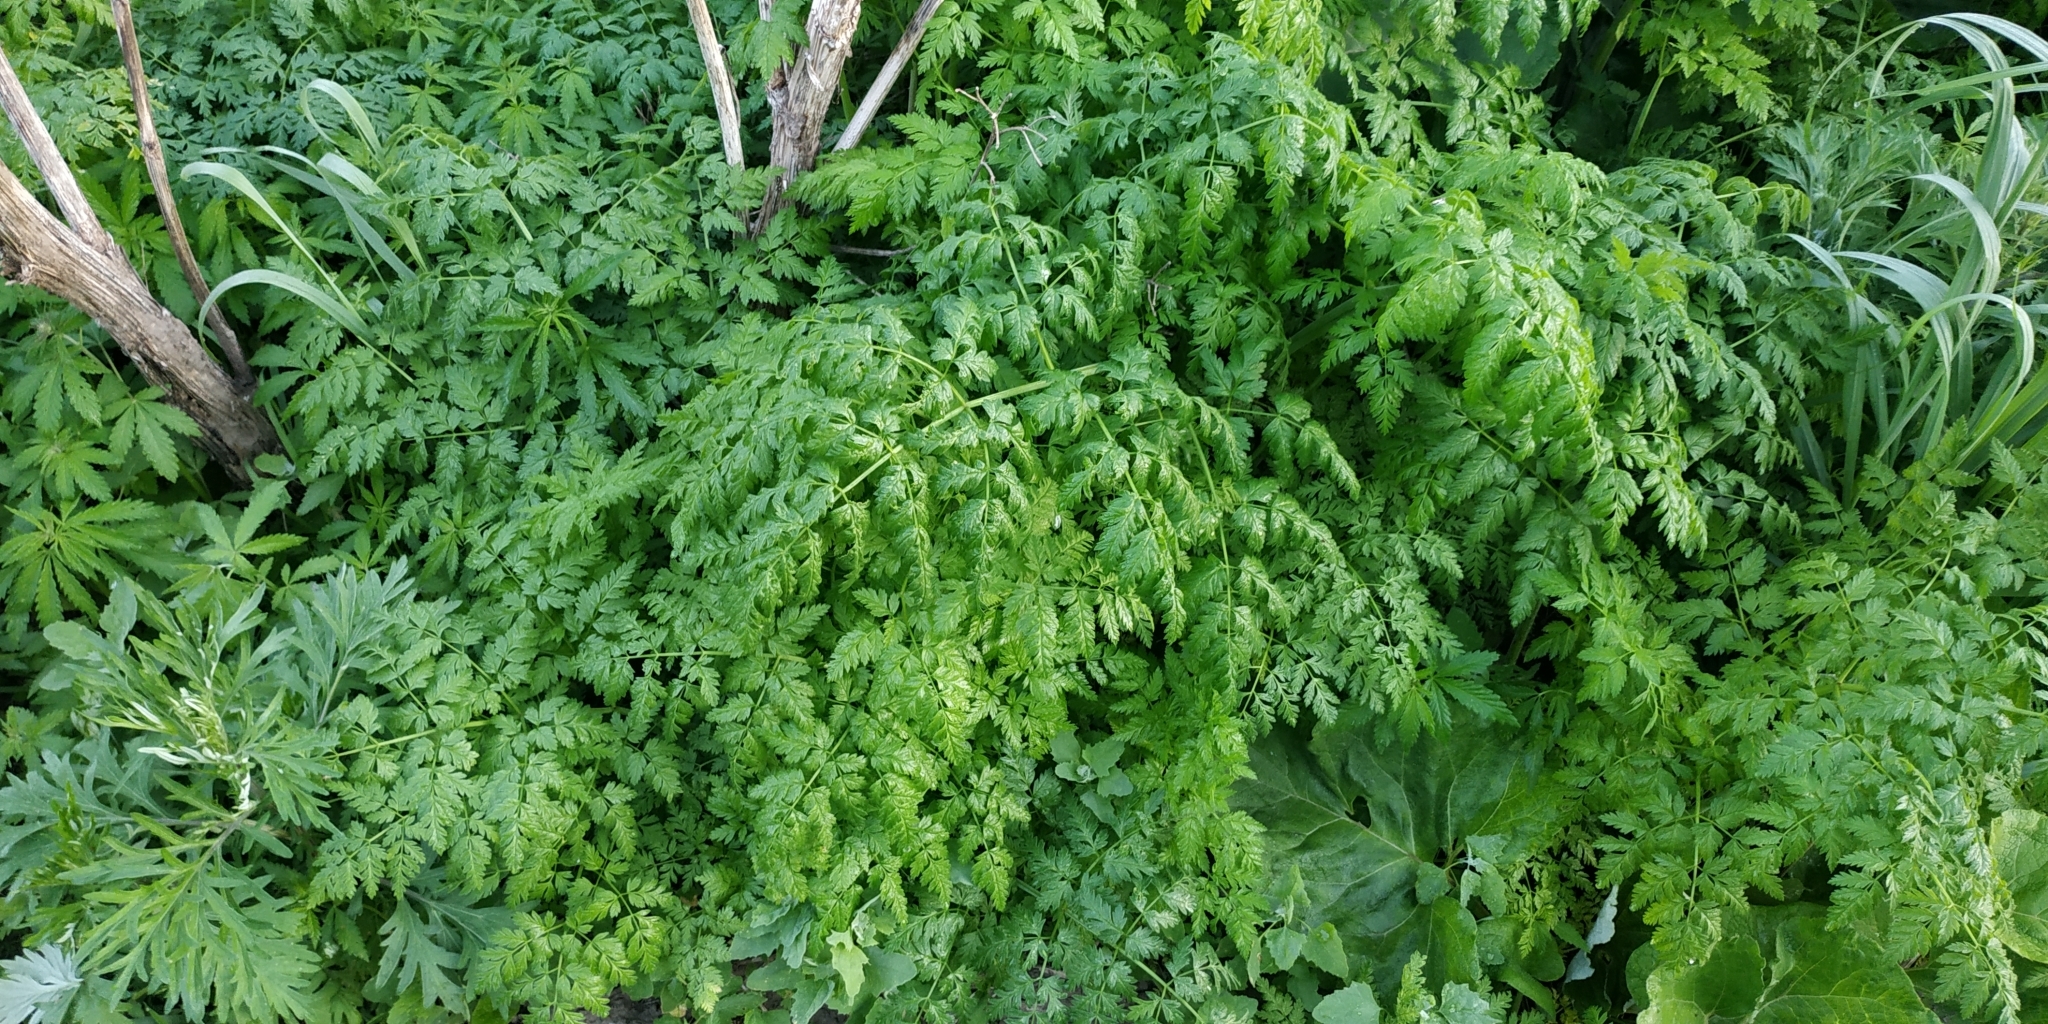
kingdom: Plantae
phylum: Tracheophyta
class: Magnoliopsida
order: Apiales
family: Apiaceae
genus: Anthriscus
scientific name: Anthriscus sylvestris
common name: Cow parsley
